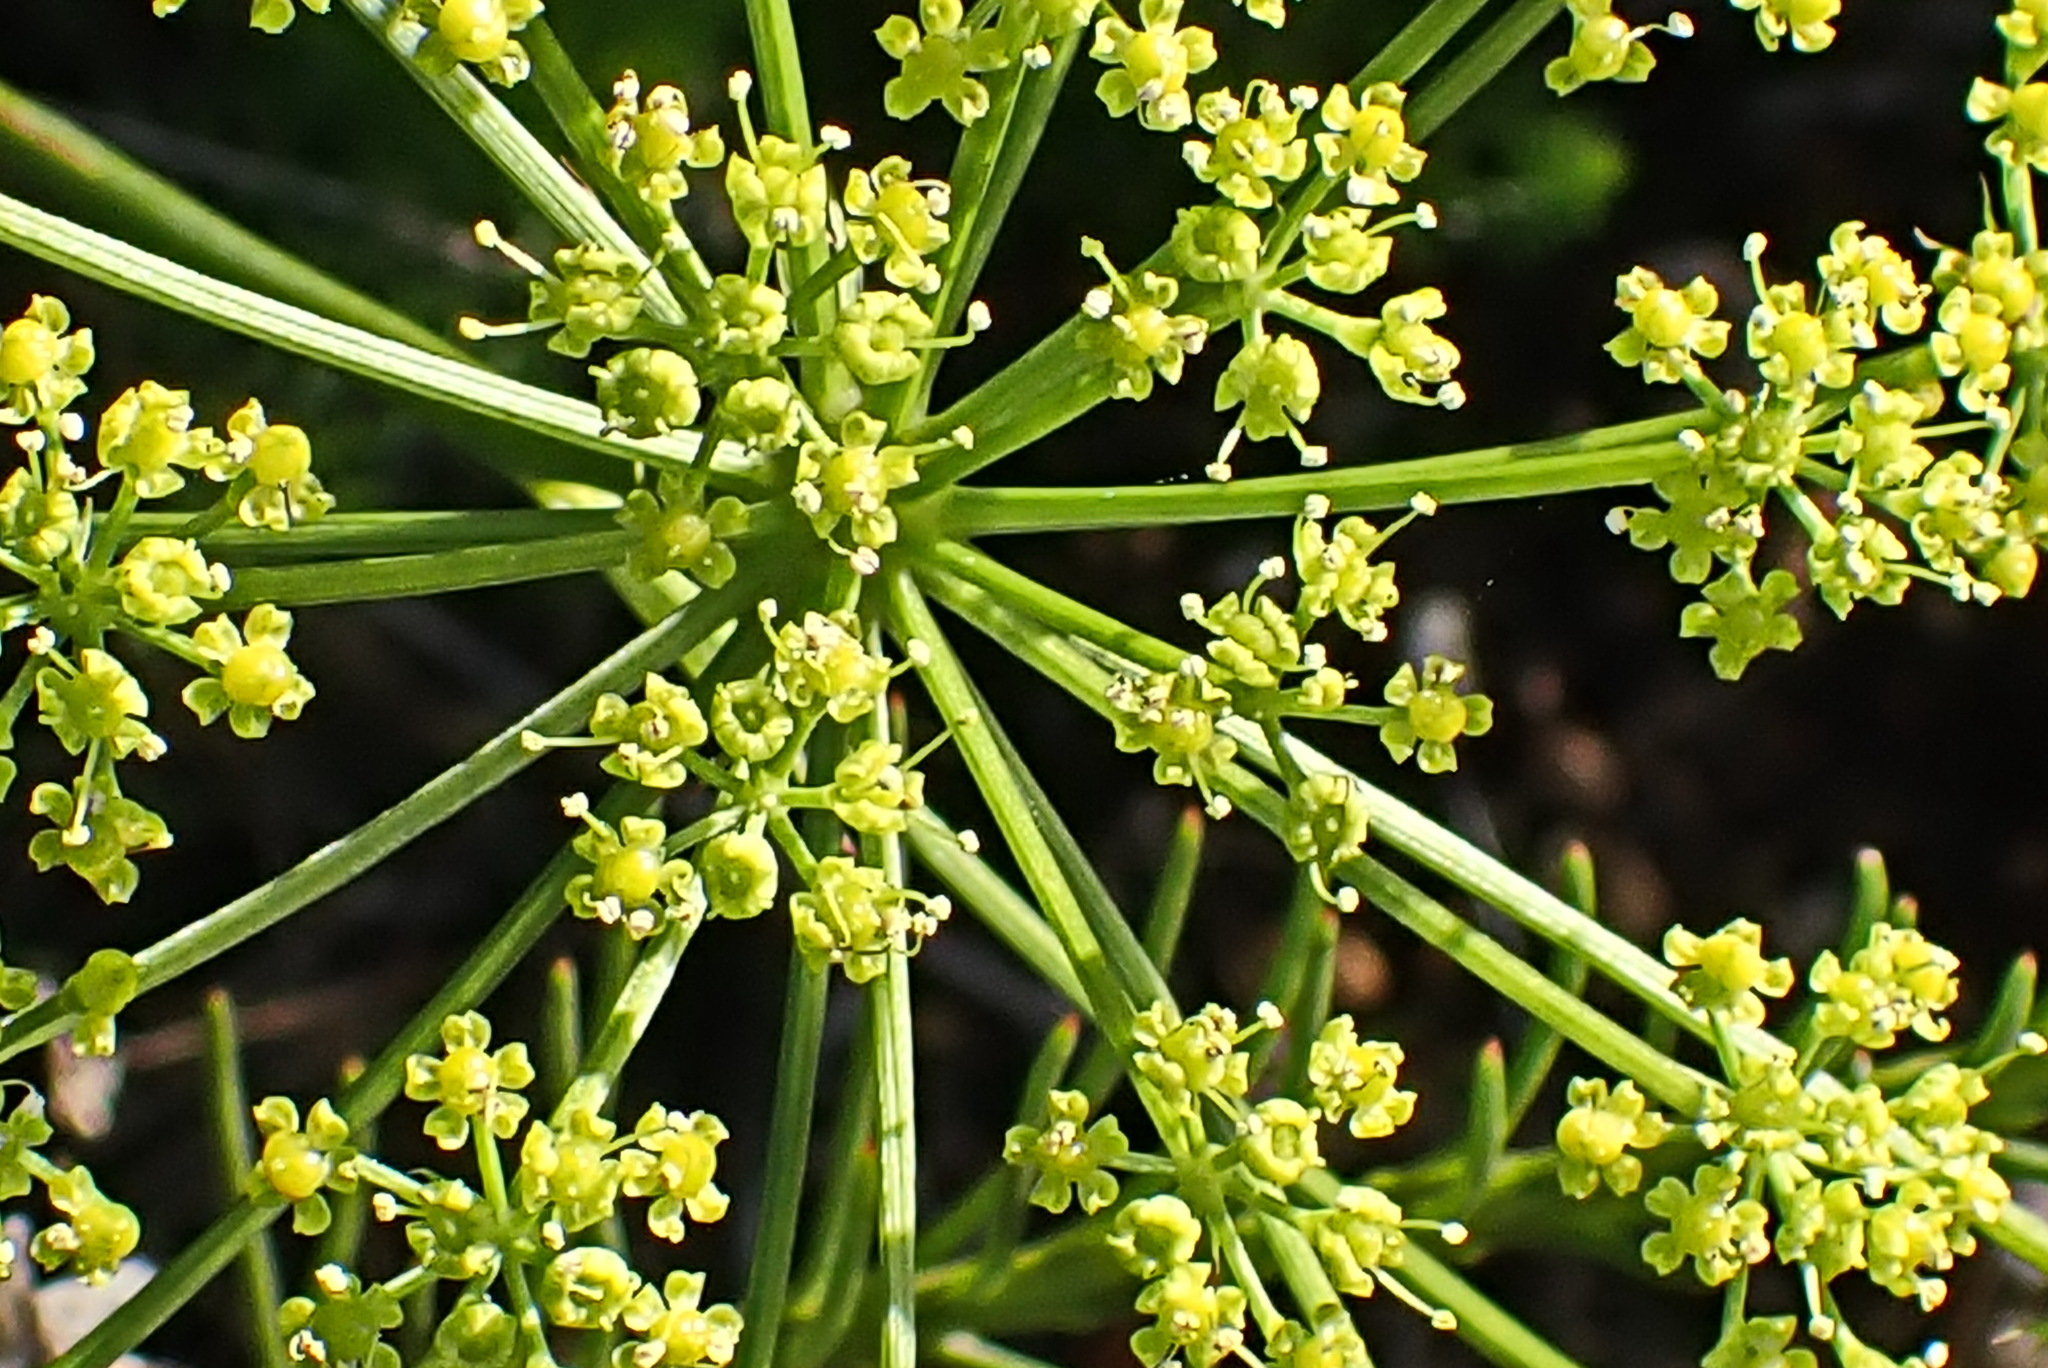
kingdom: Plantae
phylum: Tracheophyta
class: Magnoliopsida
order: Apiales
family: Apiaceae
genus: Notobubon
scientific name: Notobubon ferulaceum
